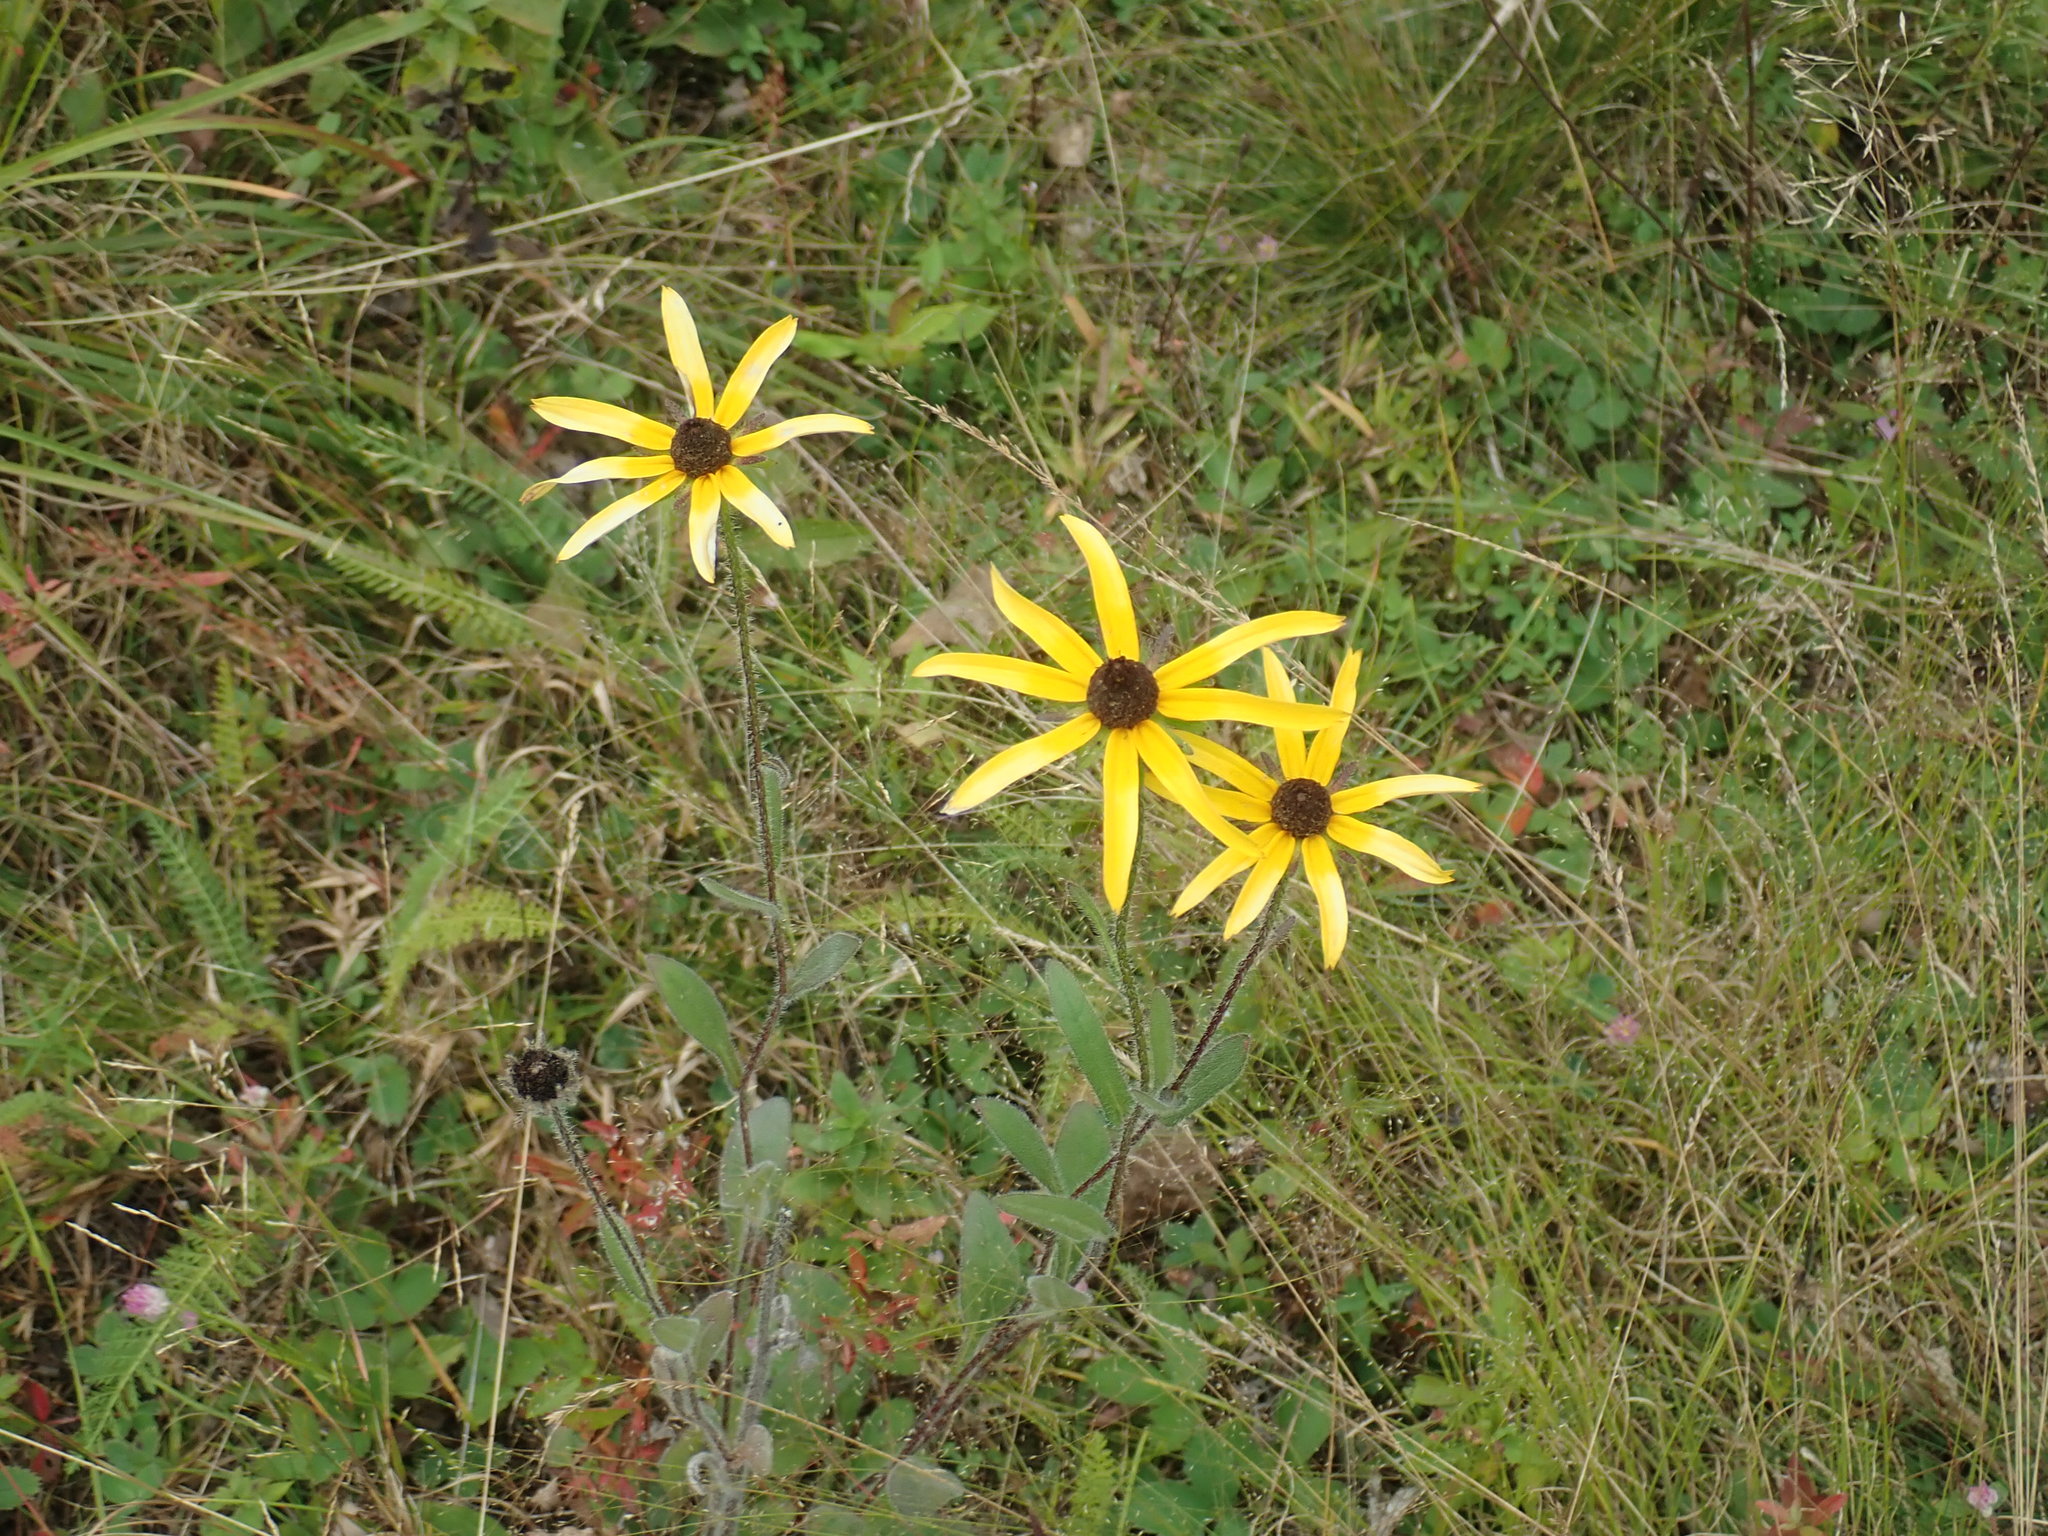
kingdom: Plantae
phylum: Tracheophyta
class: Magnoliopsida
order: Asterales
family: Asteraceae
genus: Rudbeckia
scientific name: Rudbeckia hirta
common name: Black-eyed-susan
